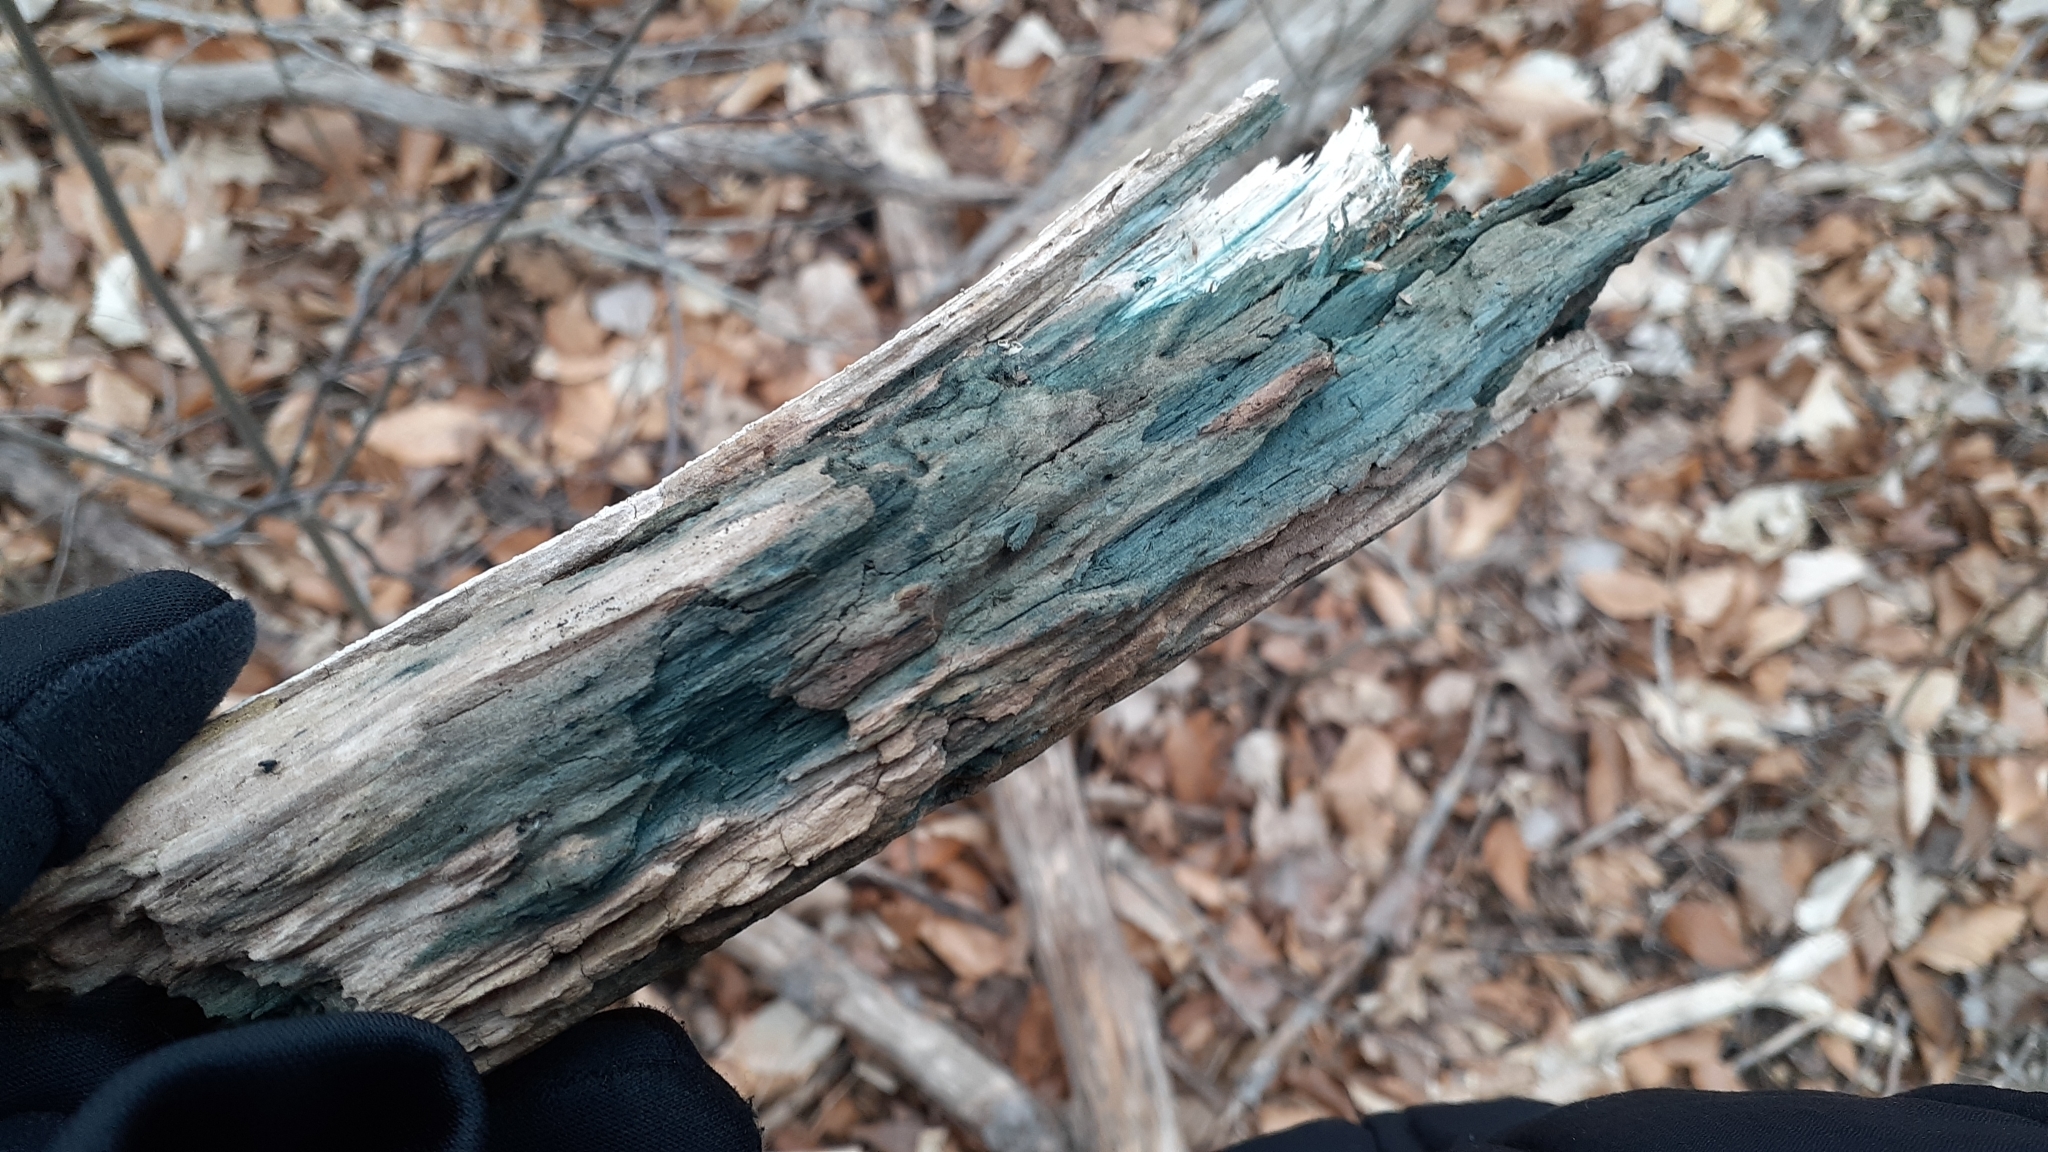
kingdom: Fungi
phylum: Ascomycota
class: Leotiomycetes
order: Helotiales
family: Chlorociboriaceae
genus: Chlorociboria
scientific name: Chlorociboria
